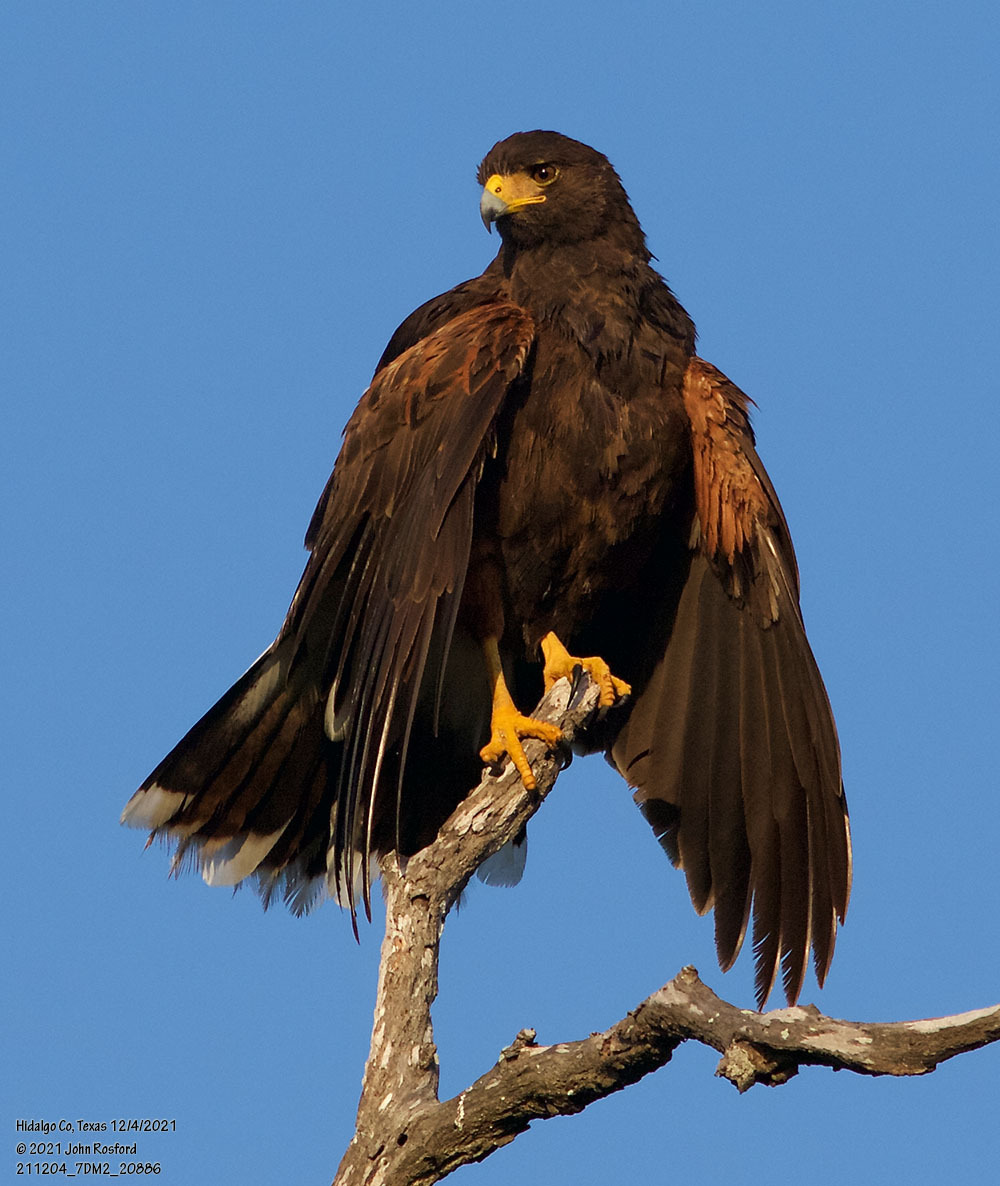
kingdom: Animalia
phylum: Chordata
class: Aves
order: Accipitriformes
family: Accipitridae
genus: Parabuteo
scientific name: Parabuteo unicinctus
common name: Harris's hawk
